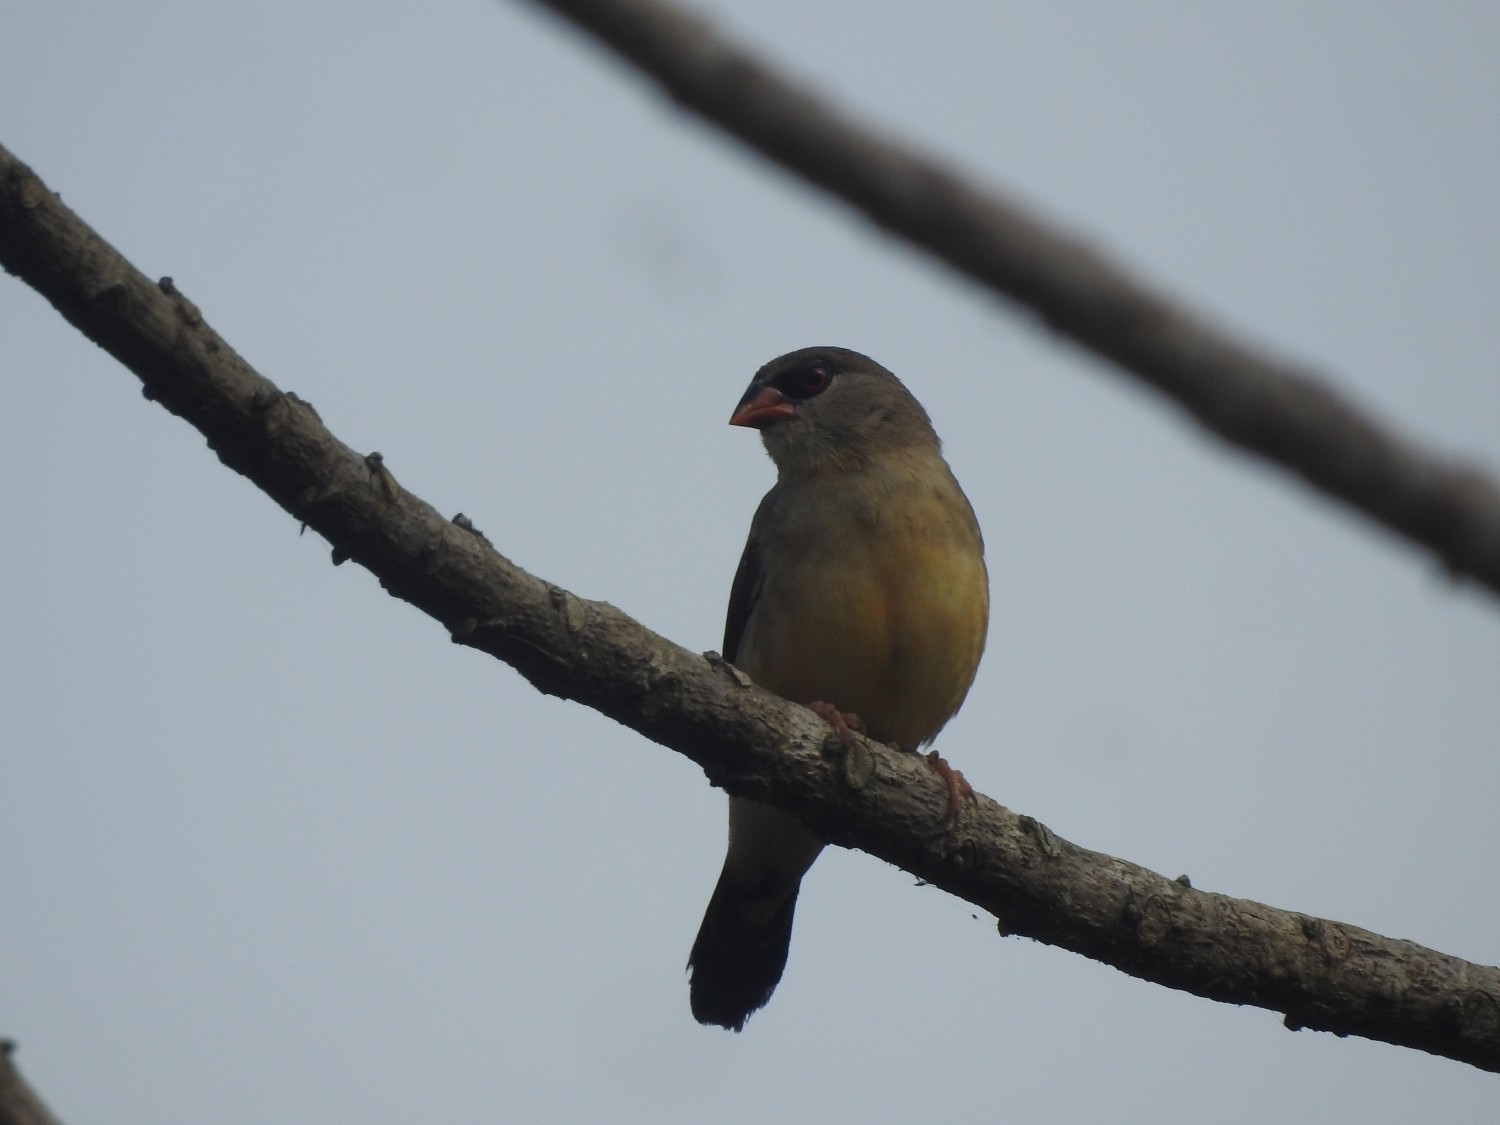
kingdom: Animalia
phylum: Chordata
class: Aves
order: Passeriformes
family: Estrildidae
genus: Amandava
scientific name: Amandava amandava
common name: Red avadavat
